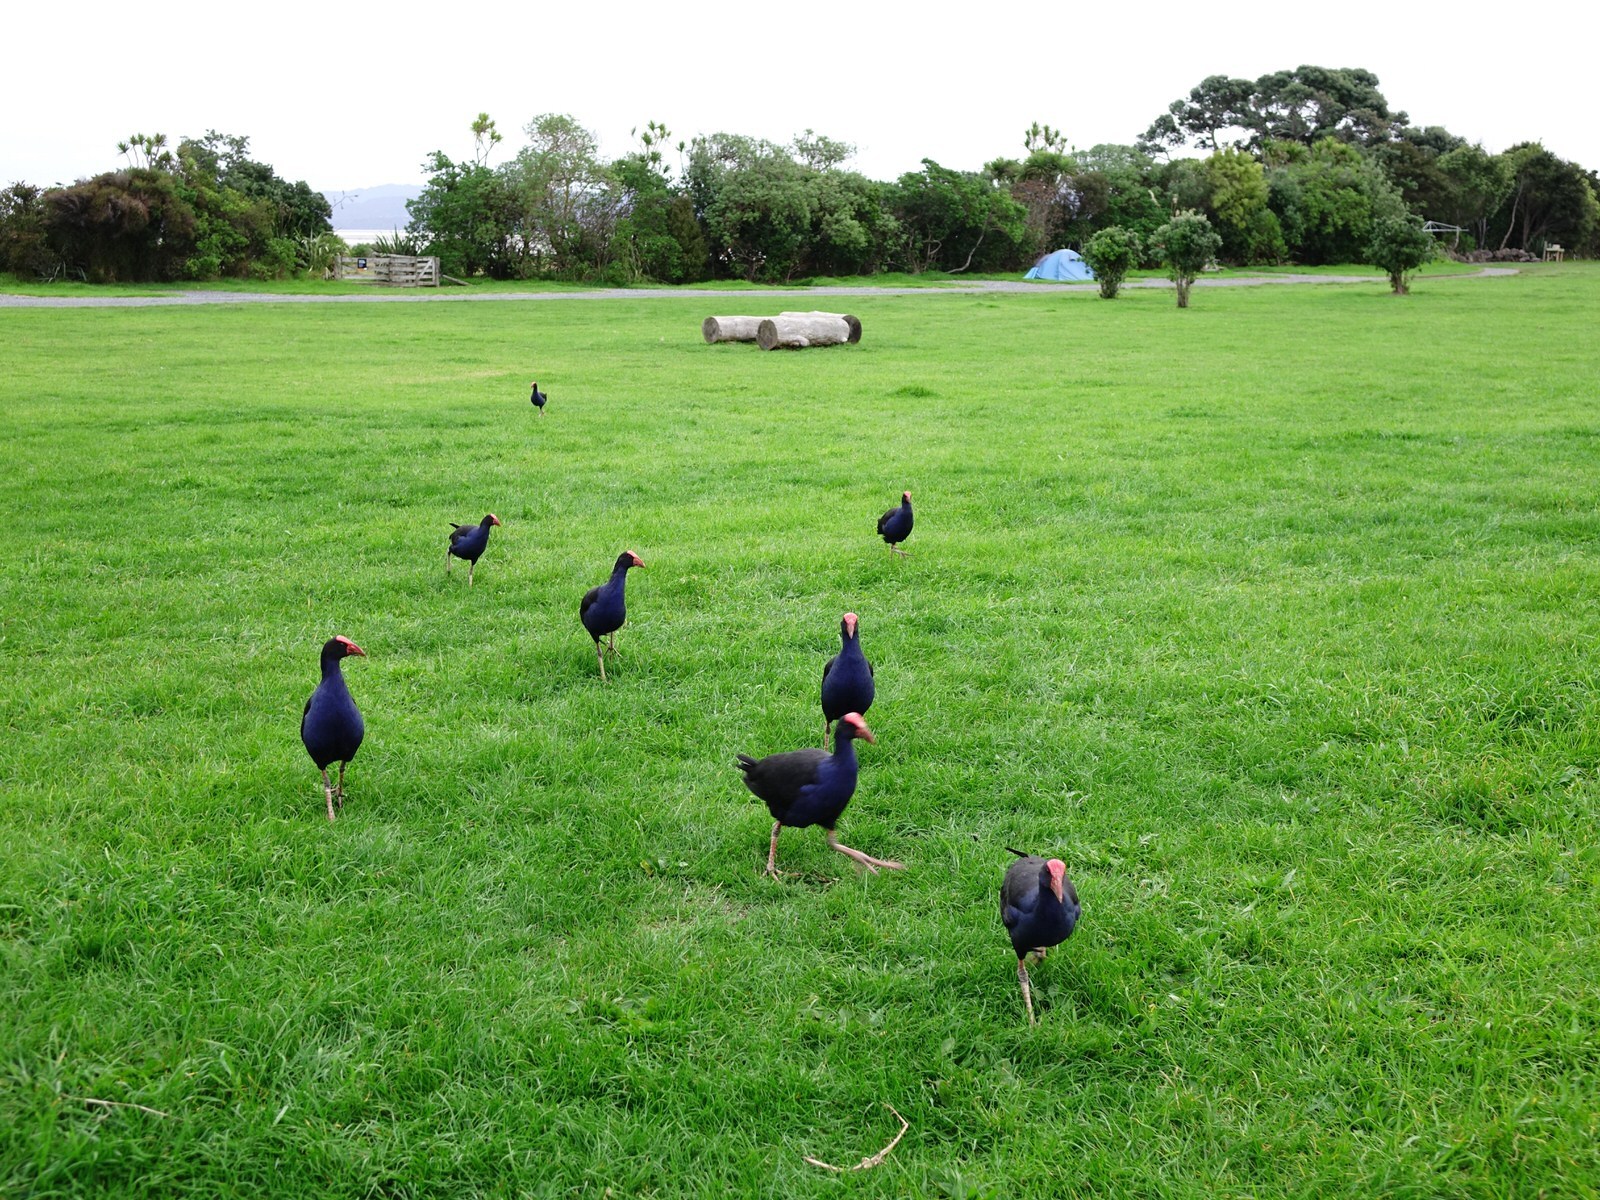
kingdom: Animalia
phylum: Chordata
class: Aves
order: Gruiformes
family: Rallidae
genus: Porphyrio
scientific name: Porphyrio melanotus
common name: Australasian swamphen
